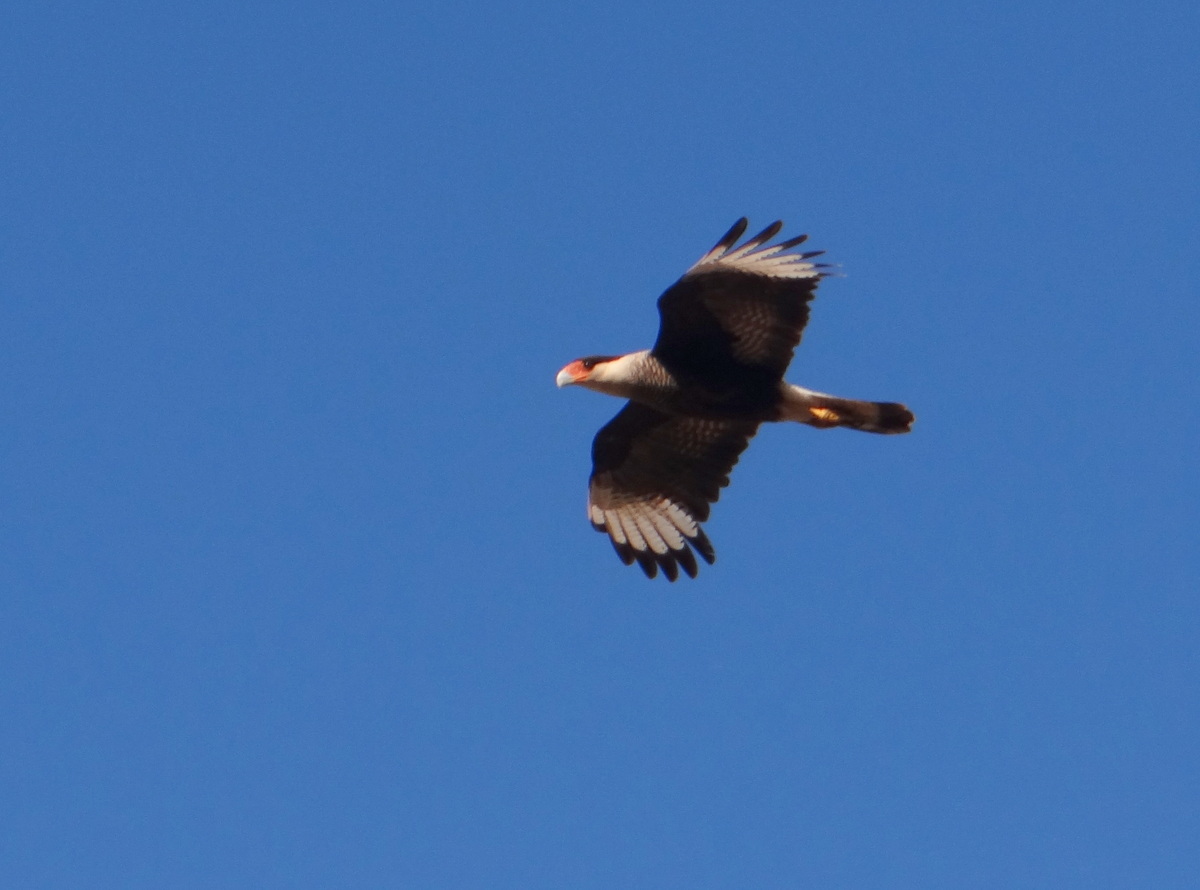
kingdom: Animalia
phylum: Chordata
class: Aves
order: Falconiformes
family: Falconidae
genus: Caracara
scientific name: Caracara plancus
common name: Southern caracara
